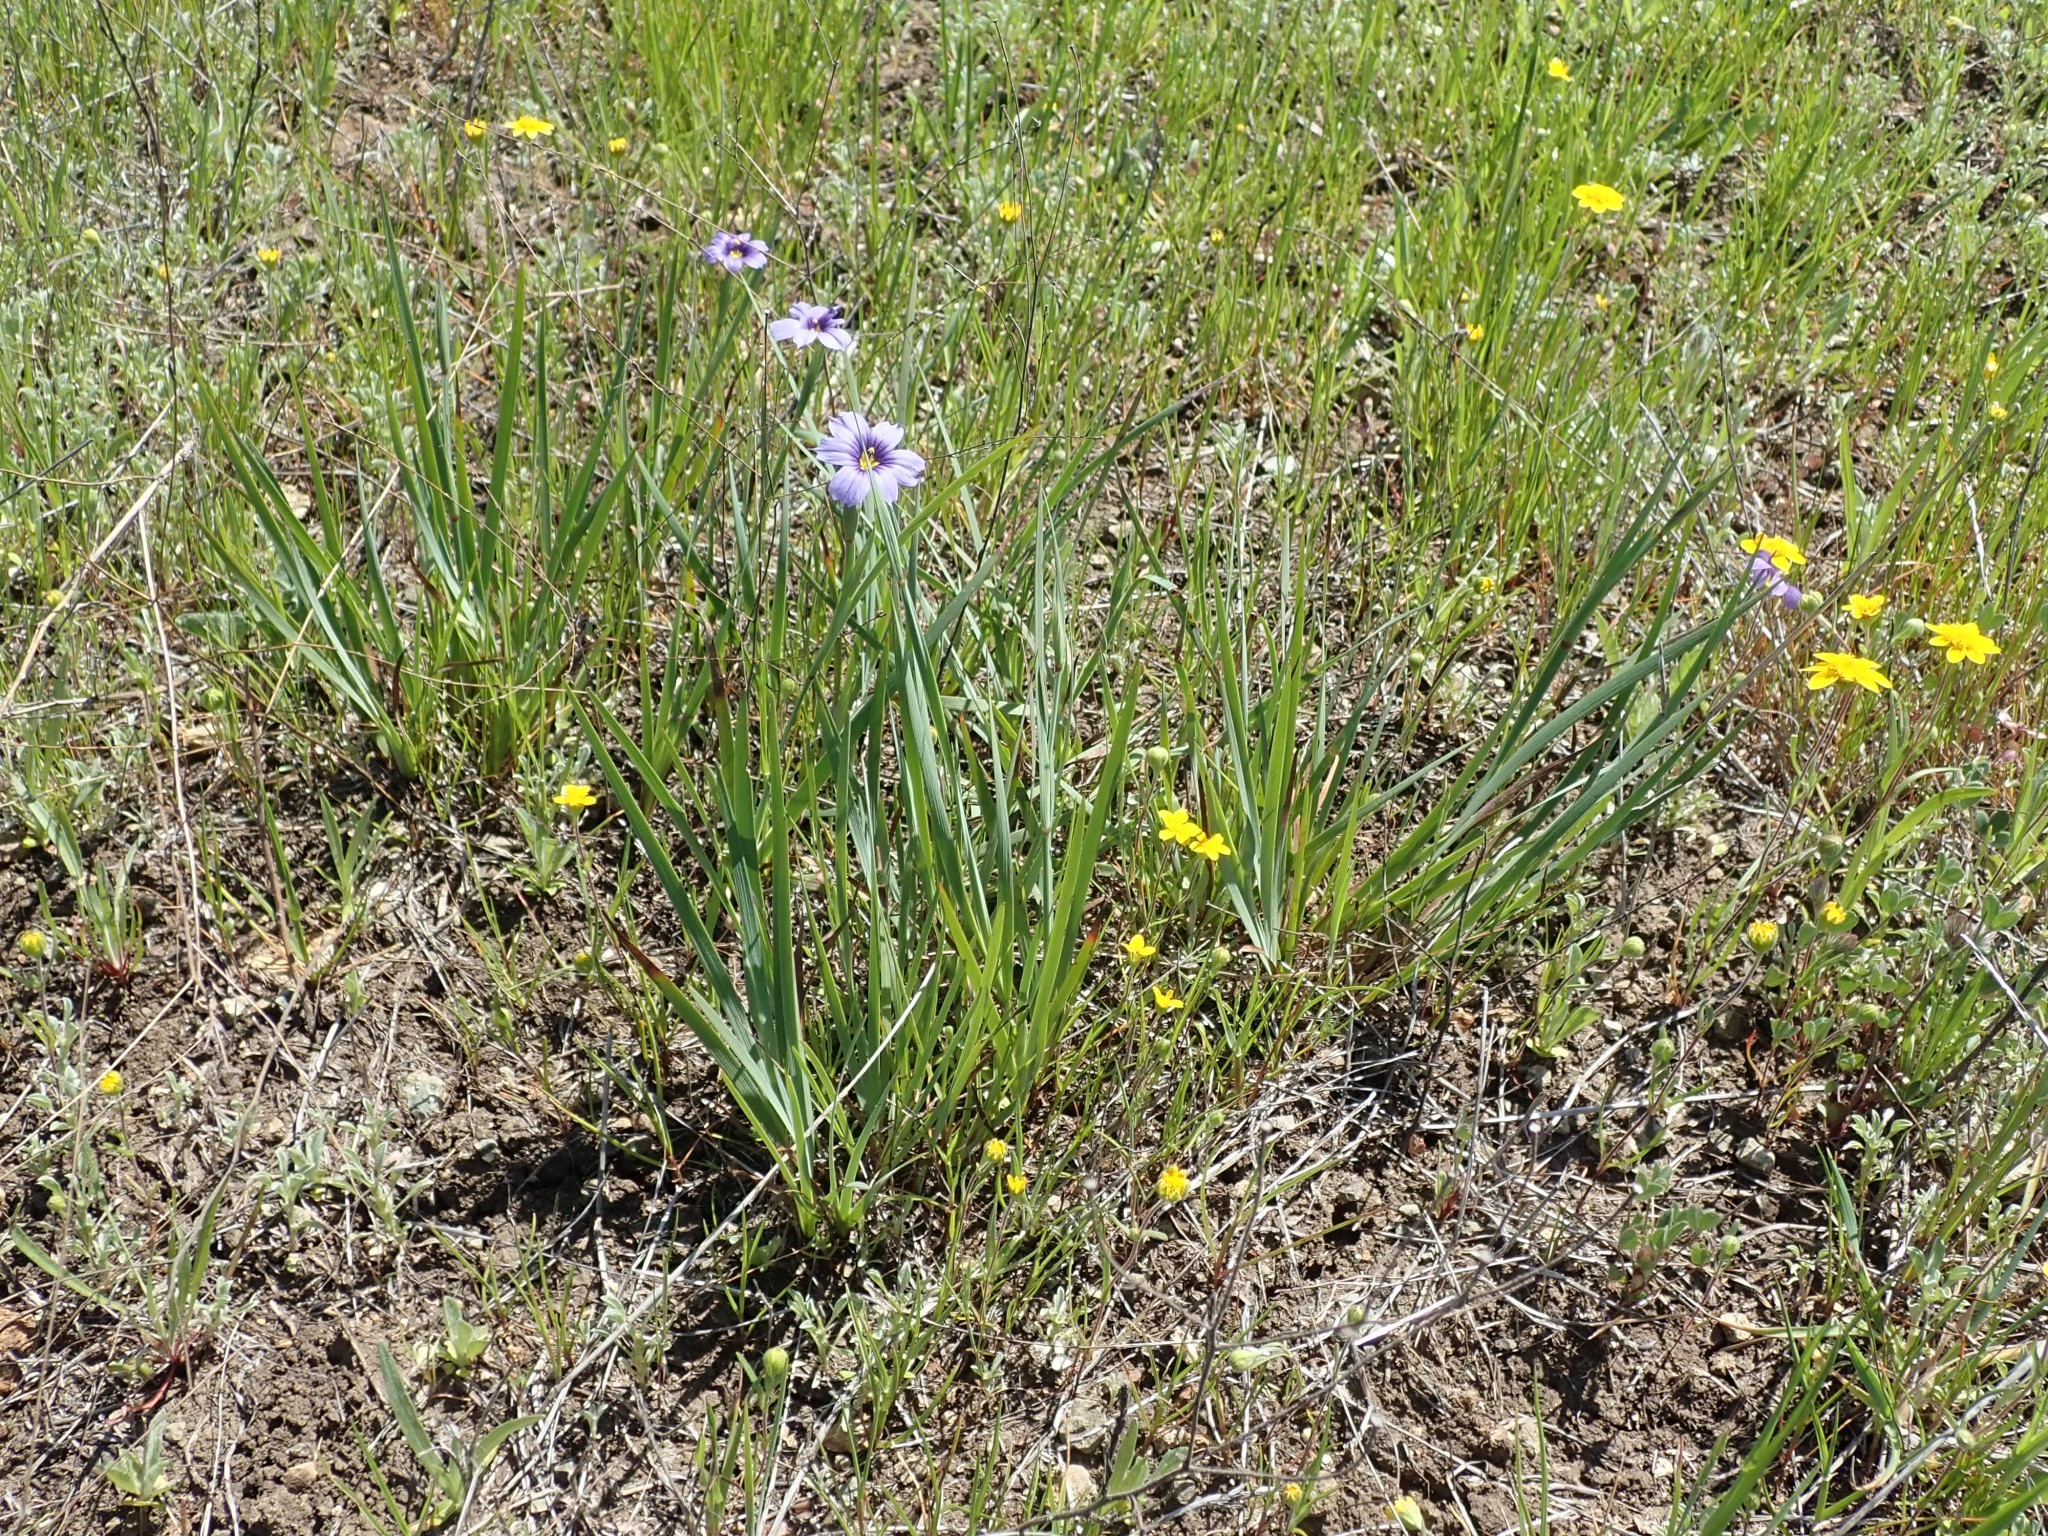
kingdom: Plantae
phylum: Tracheophyta
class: Liliopsida
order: Asparagales
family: Iridaceae
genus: Sisyrinchium
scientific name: Sisyrinchium bellum
